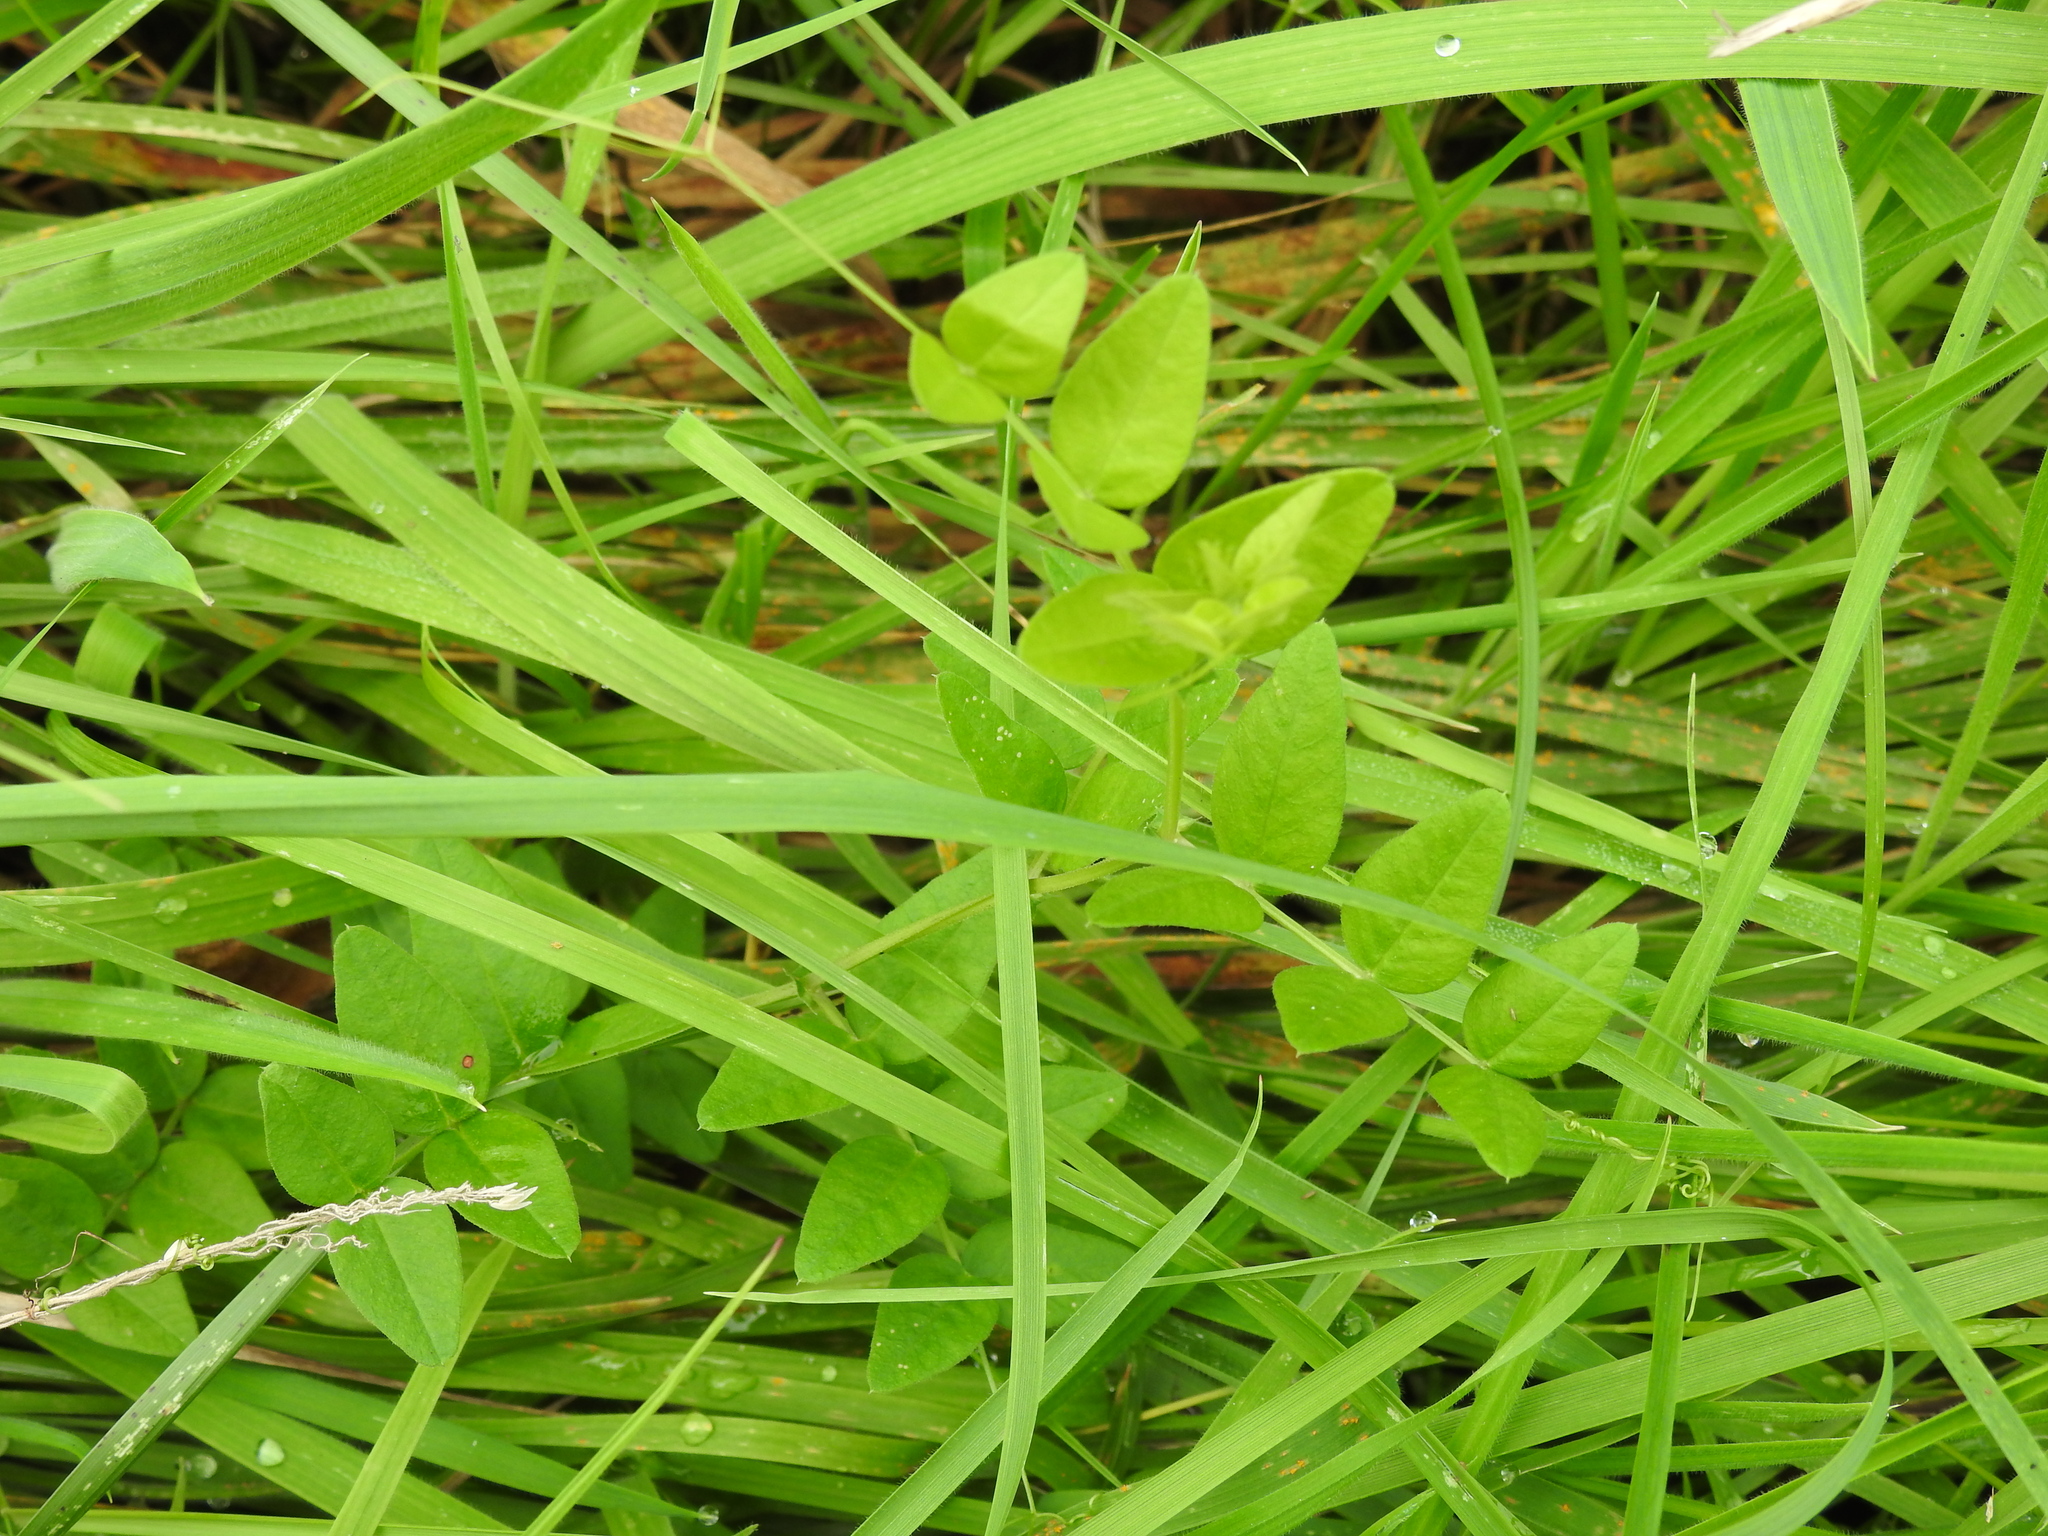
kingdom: Plantae
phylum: Tracheophyta
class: Magnoliopsida
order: Fabales
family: Fabaceae
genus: Vicia
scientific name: Vicia sepium
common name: Bush vetch
